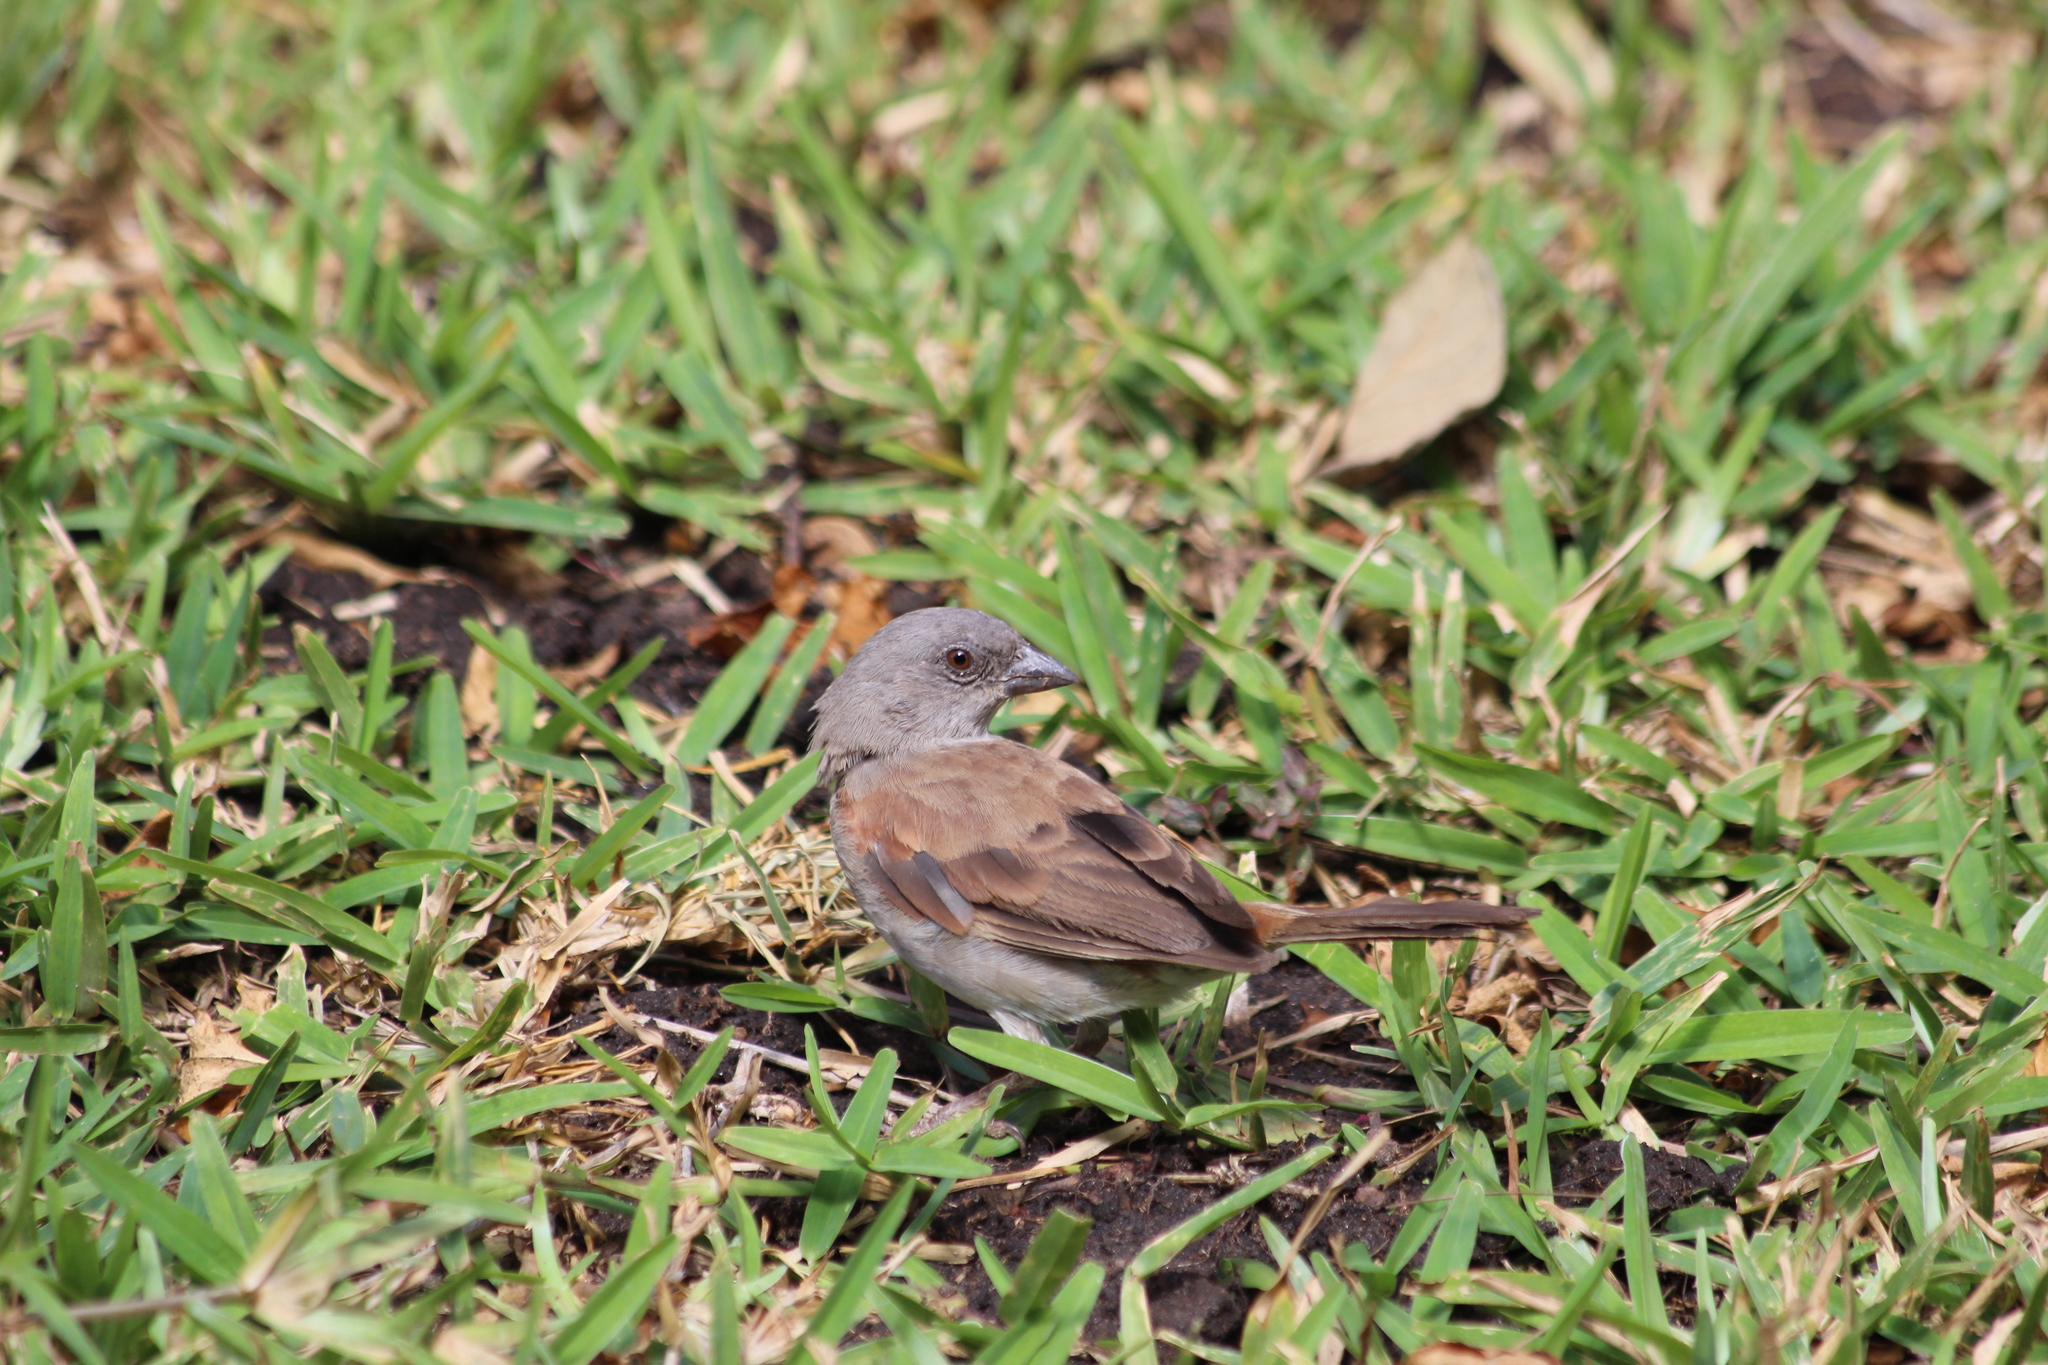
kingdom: Animalia
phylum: Chordata
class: Aves
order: Passeriformes
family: Passeridae
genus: Passer
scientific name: Passer diffusus
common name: Southern grey-headed sparrow
